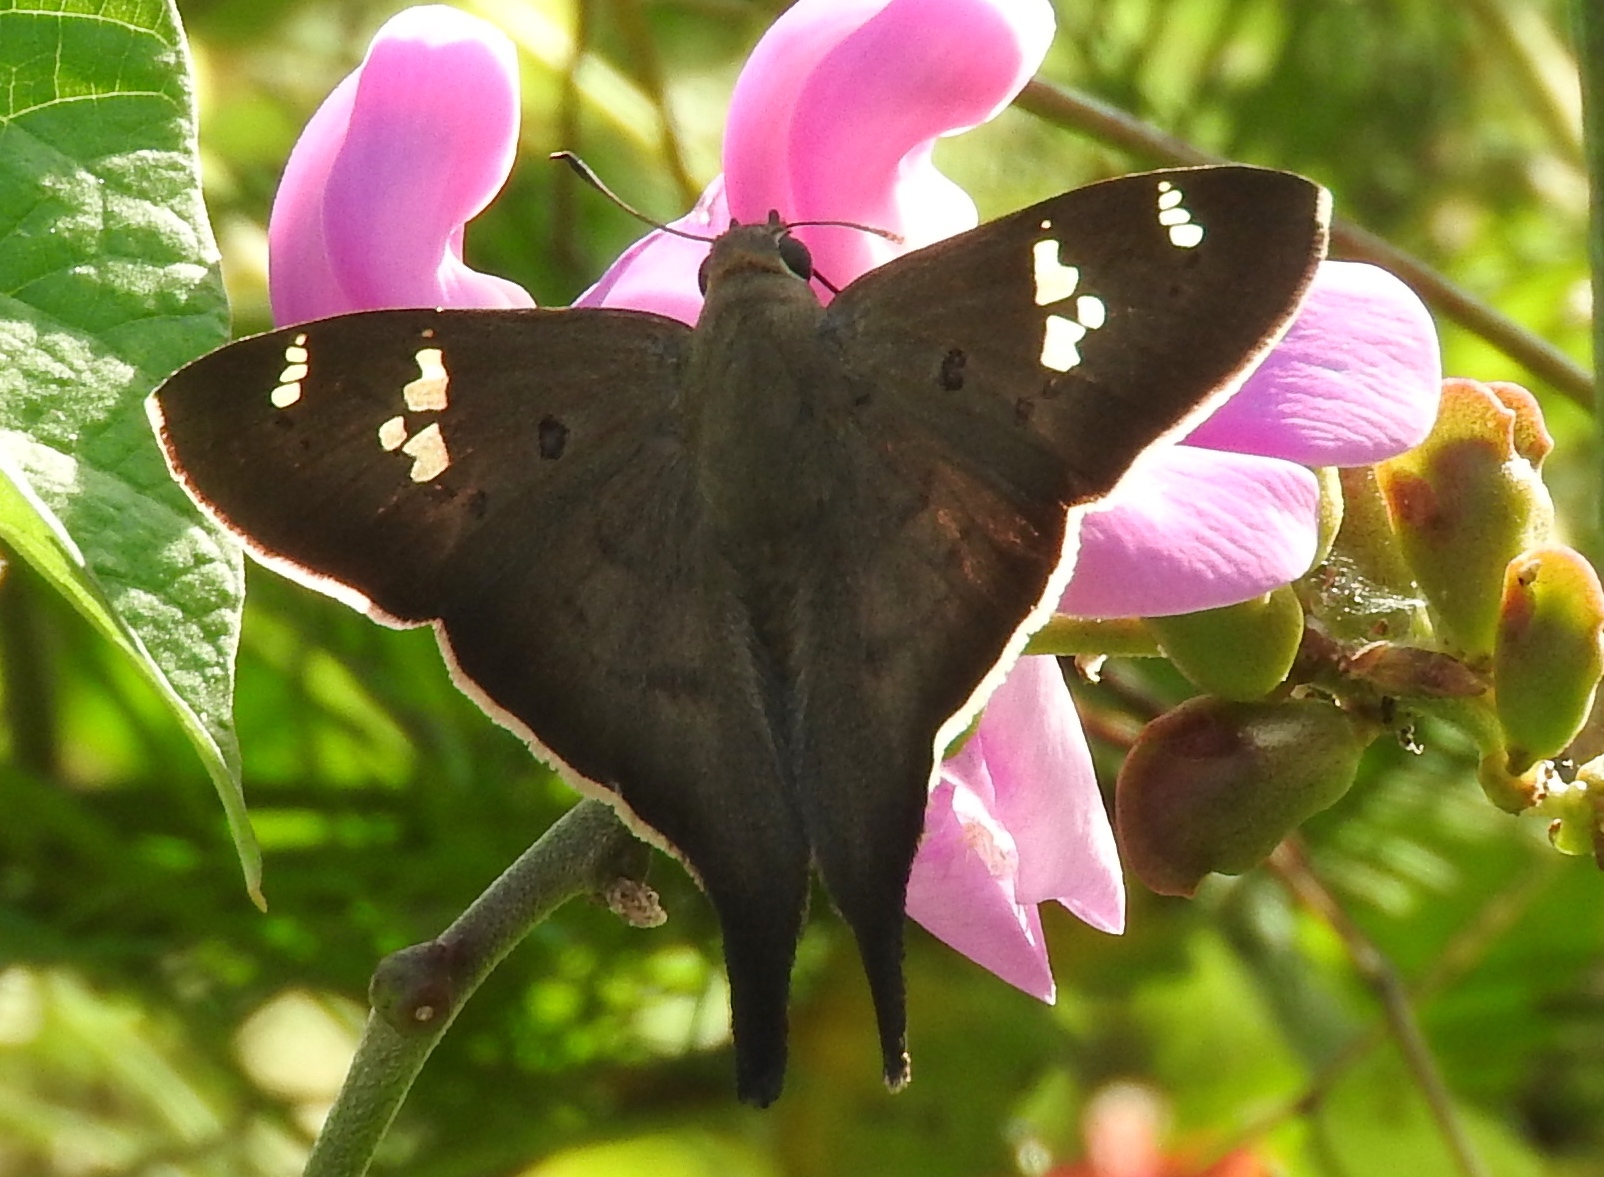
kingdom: Animalia
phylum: Arthropoda
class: Insecta
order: Lepidoptera
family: Hesperiidae
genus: Ectomis
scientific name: Ectomis
